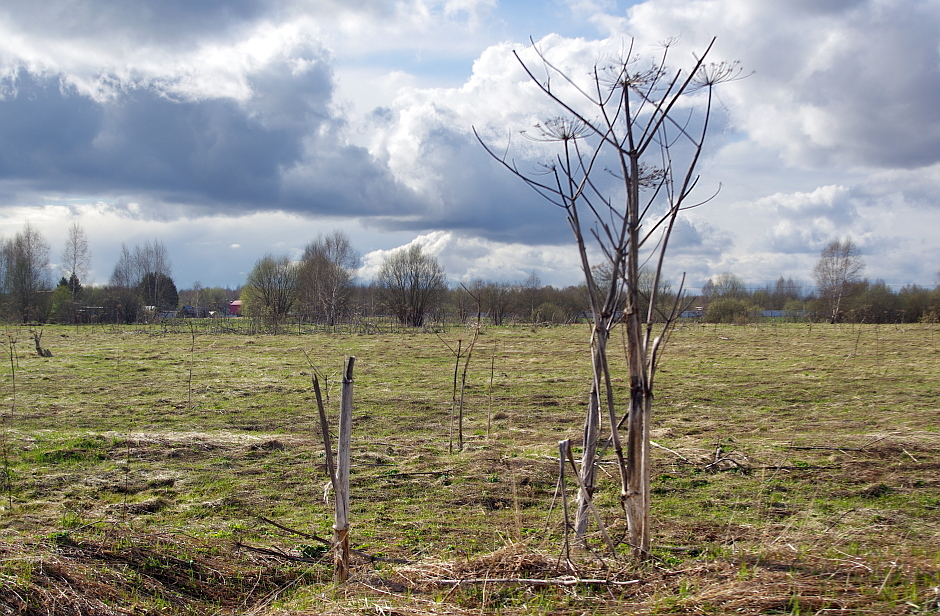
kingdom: Plantae
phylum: Tracheophyta
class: Magnoliopsida
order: Apiales
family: Apiaceae
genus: Heracleum
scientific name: Heracleum sosnowskyi
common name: Sosnowsky's hogweed
